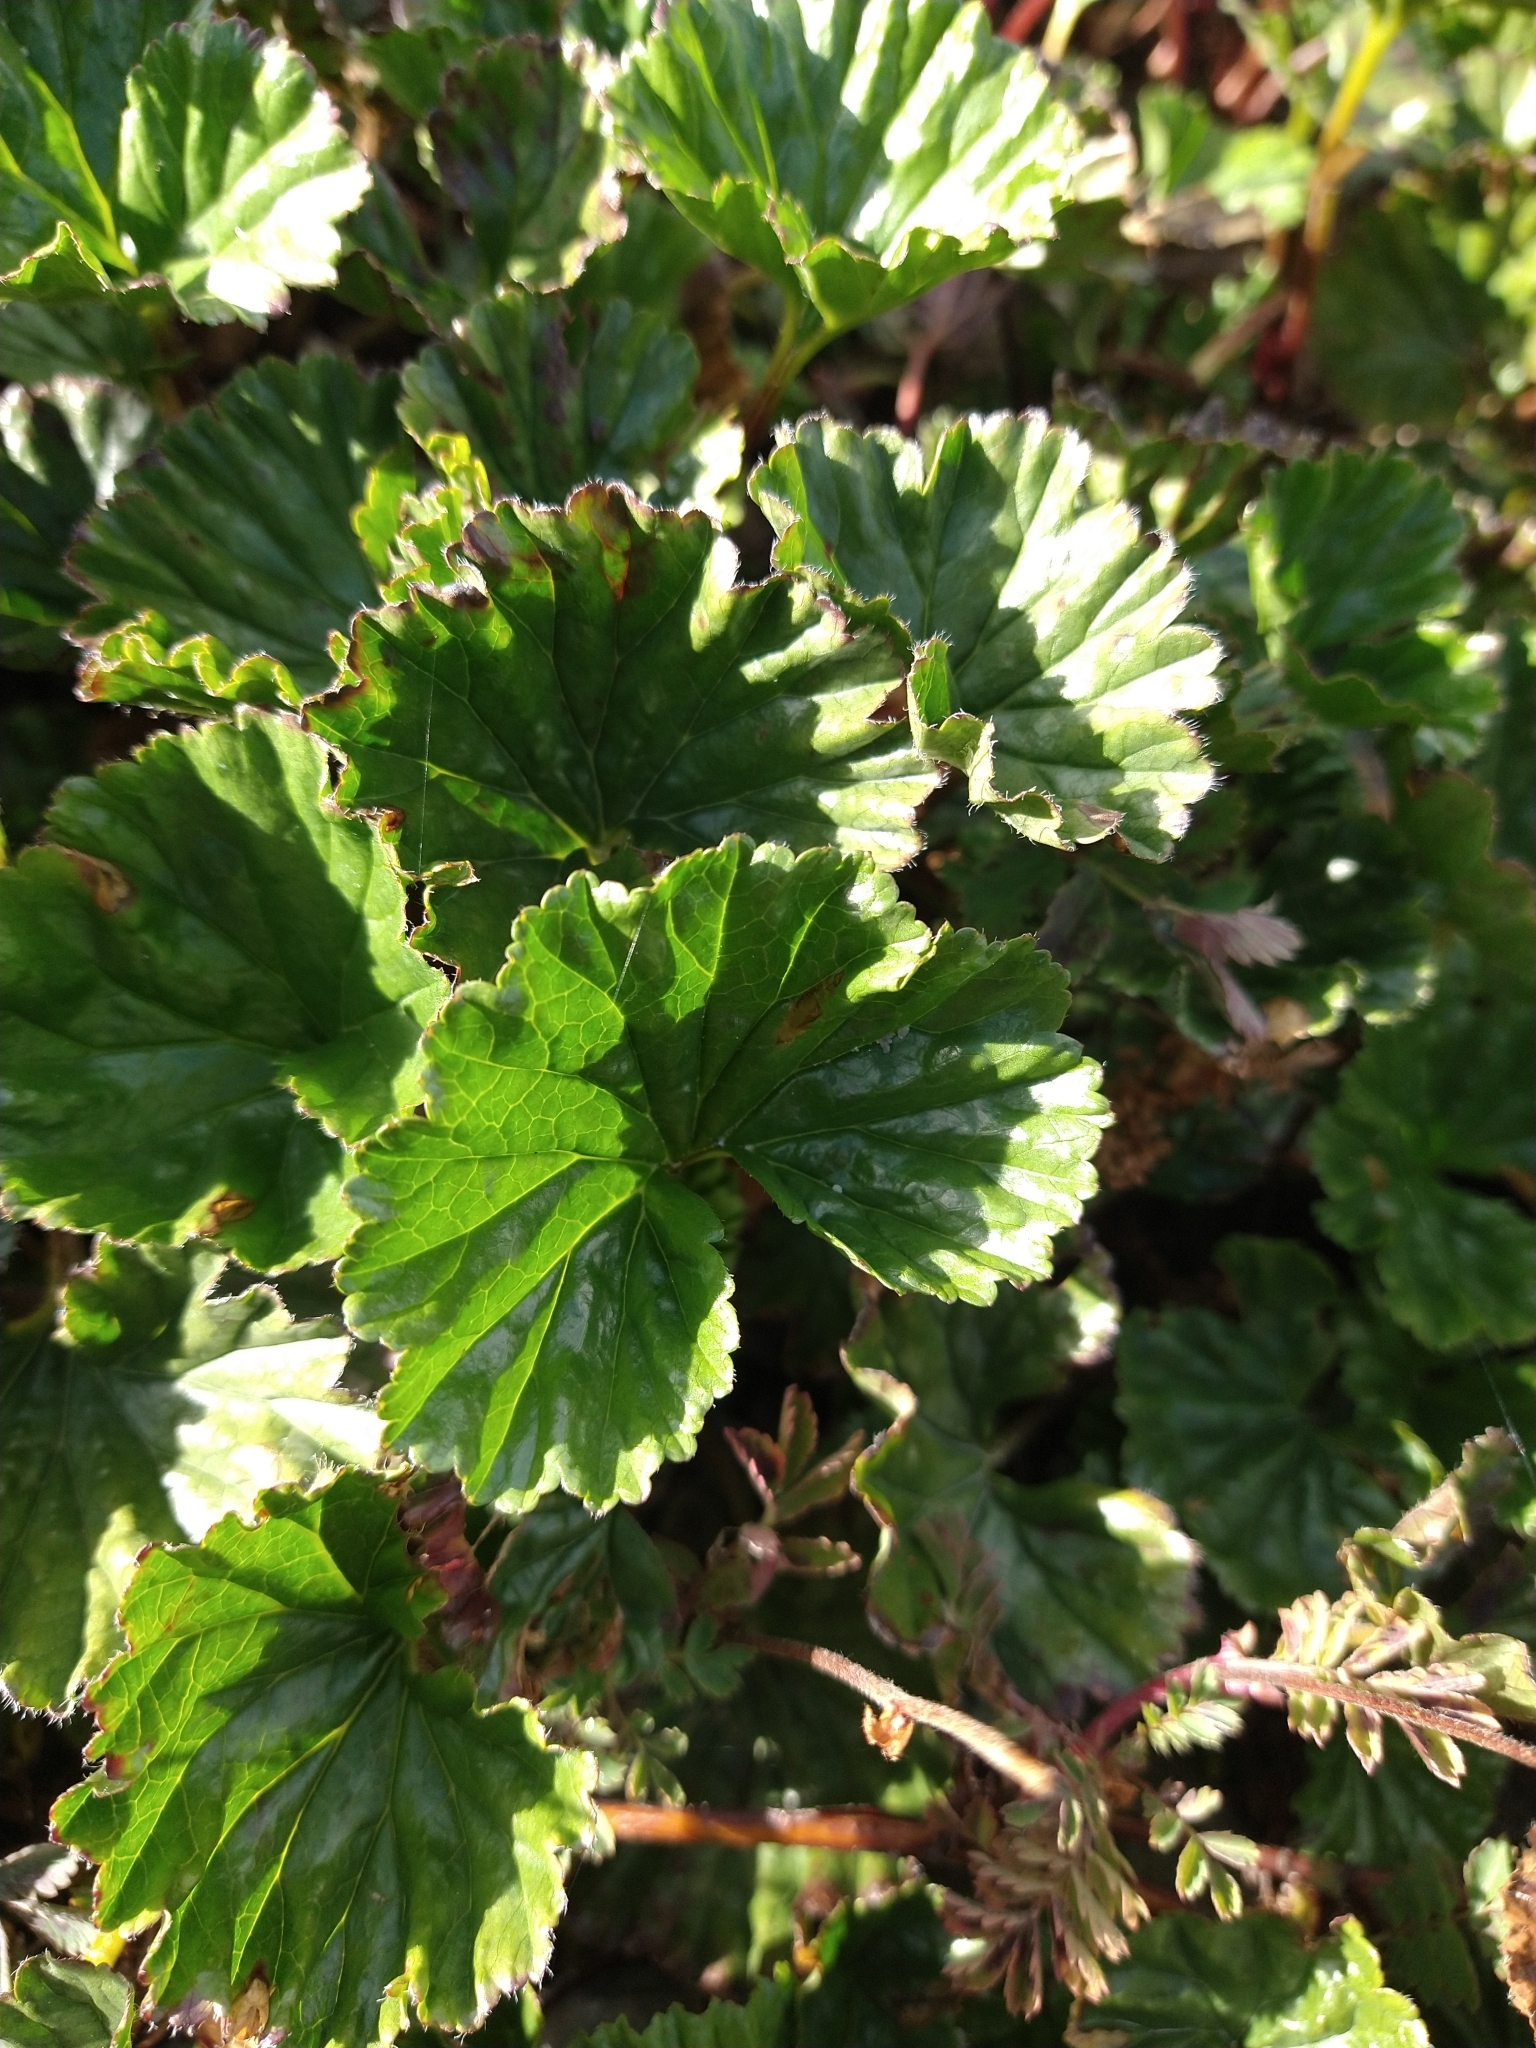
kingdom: Plantae
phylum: Tracheophyta
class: Magnoliopsida
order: Gunnerales
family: Gunneraceae
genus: Gunnera
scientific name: Gunnera magellanica
